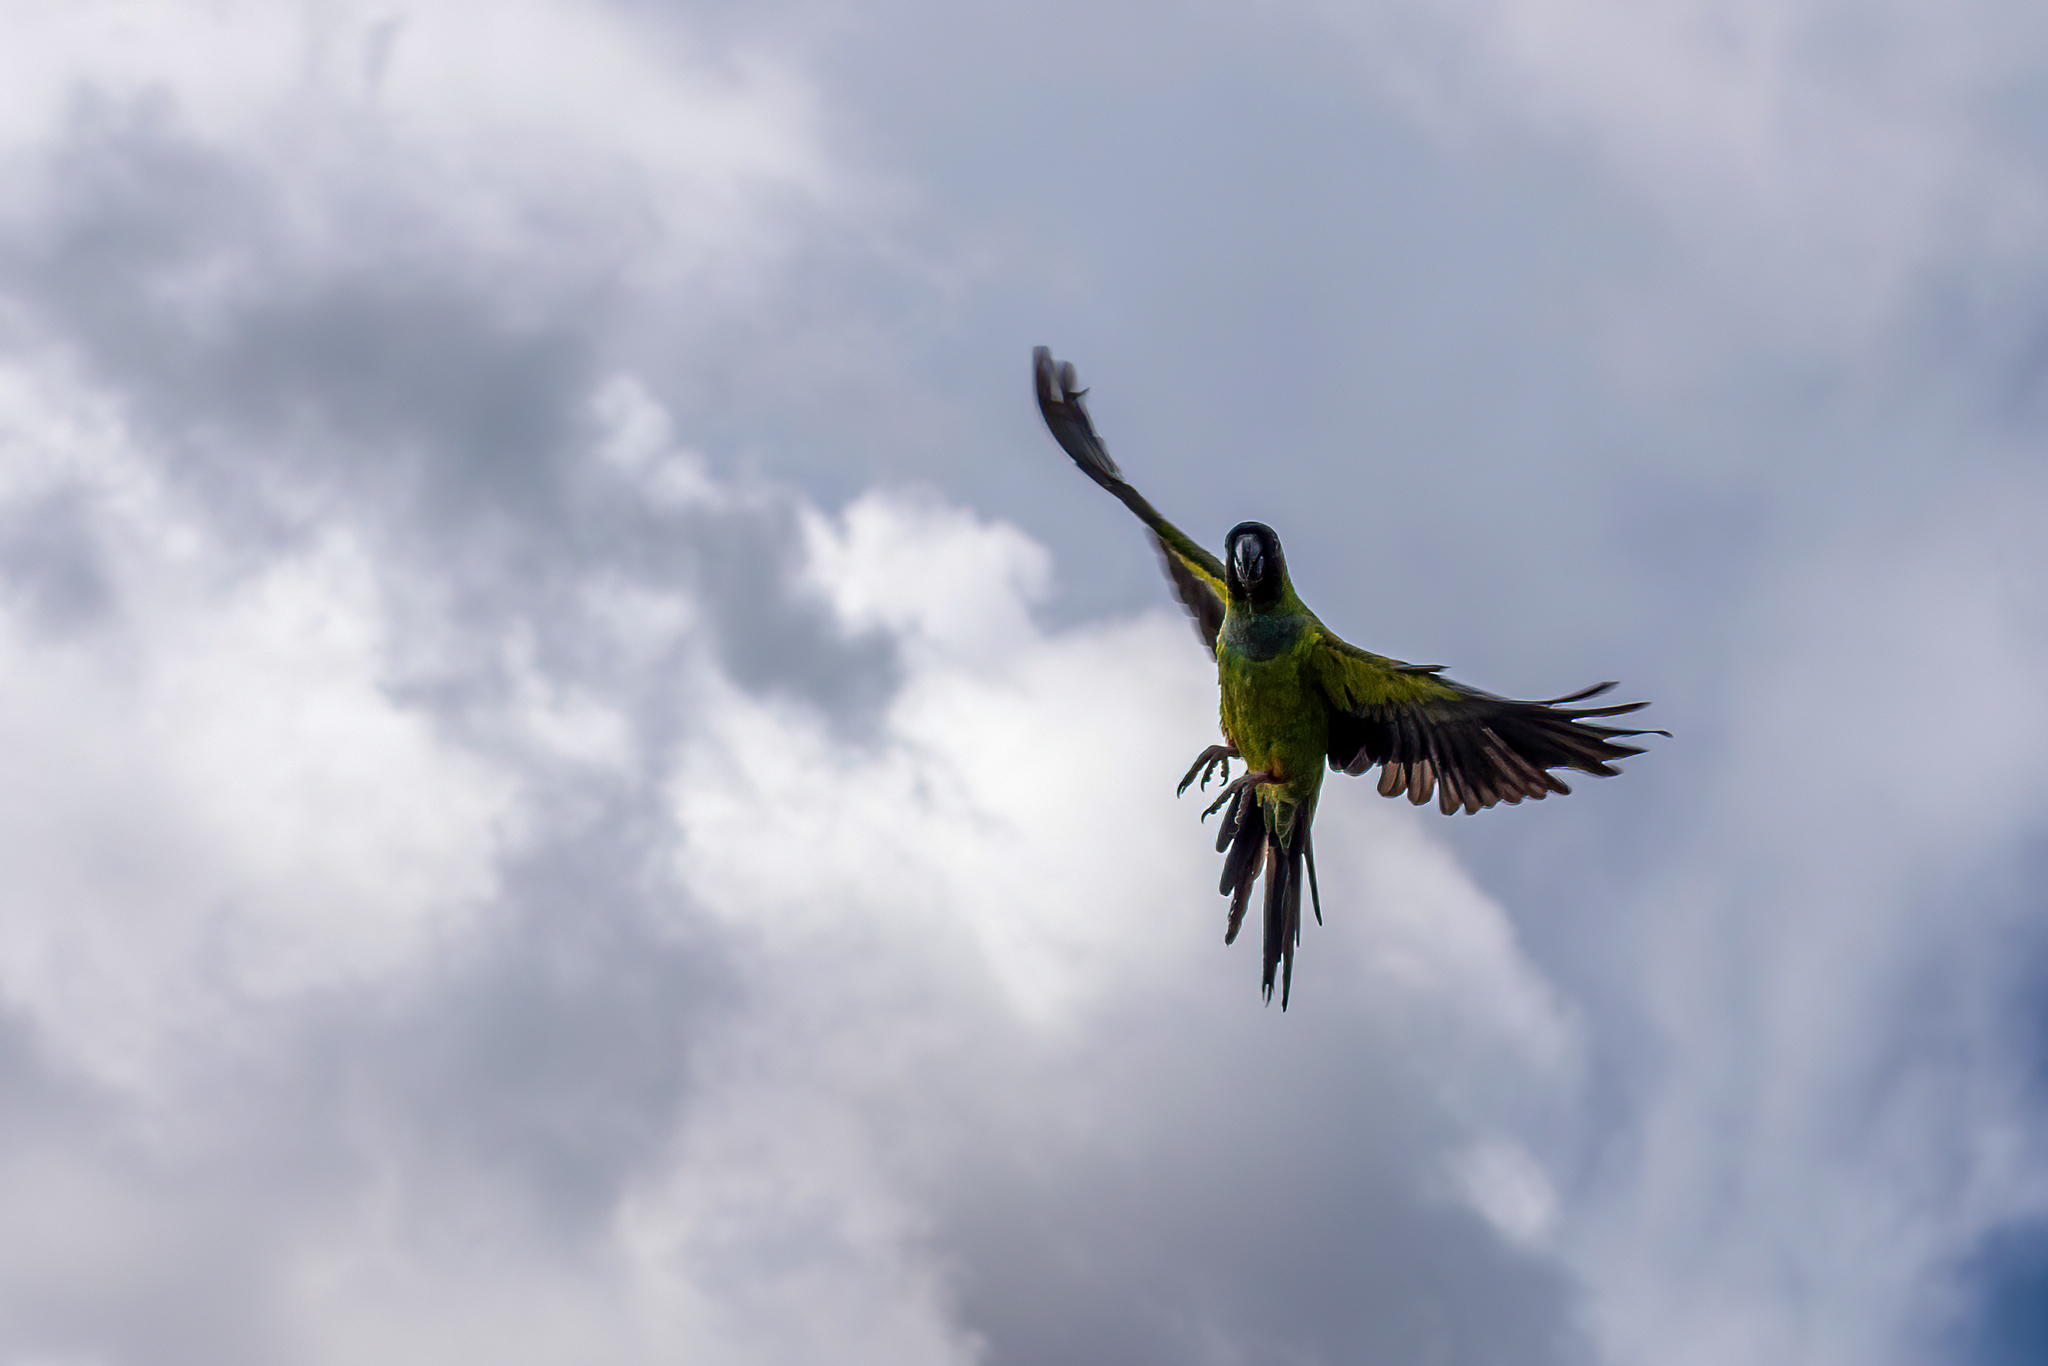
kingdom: Animalia
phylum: Chordata
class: Aves
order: Psittaciformes
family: Psittacidae
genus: Nandayus
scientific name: Nandayus nenday
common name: Nanday parakeet
